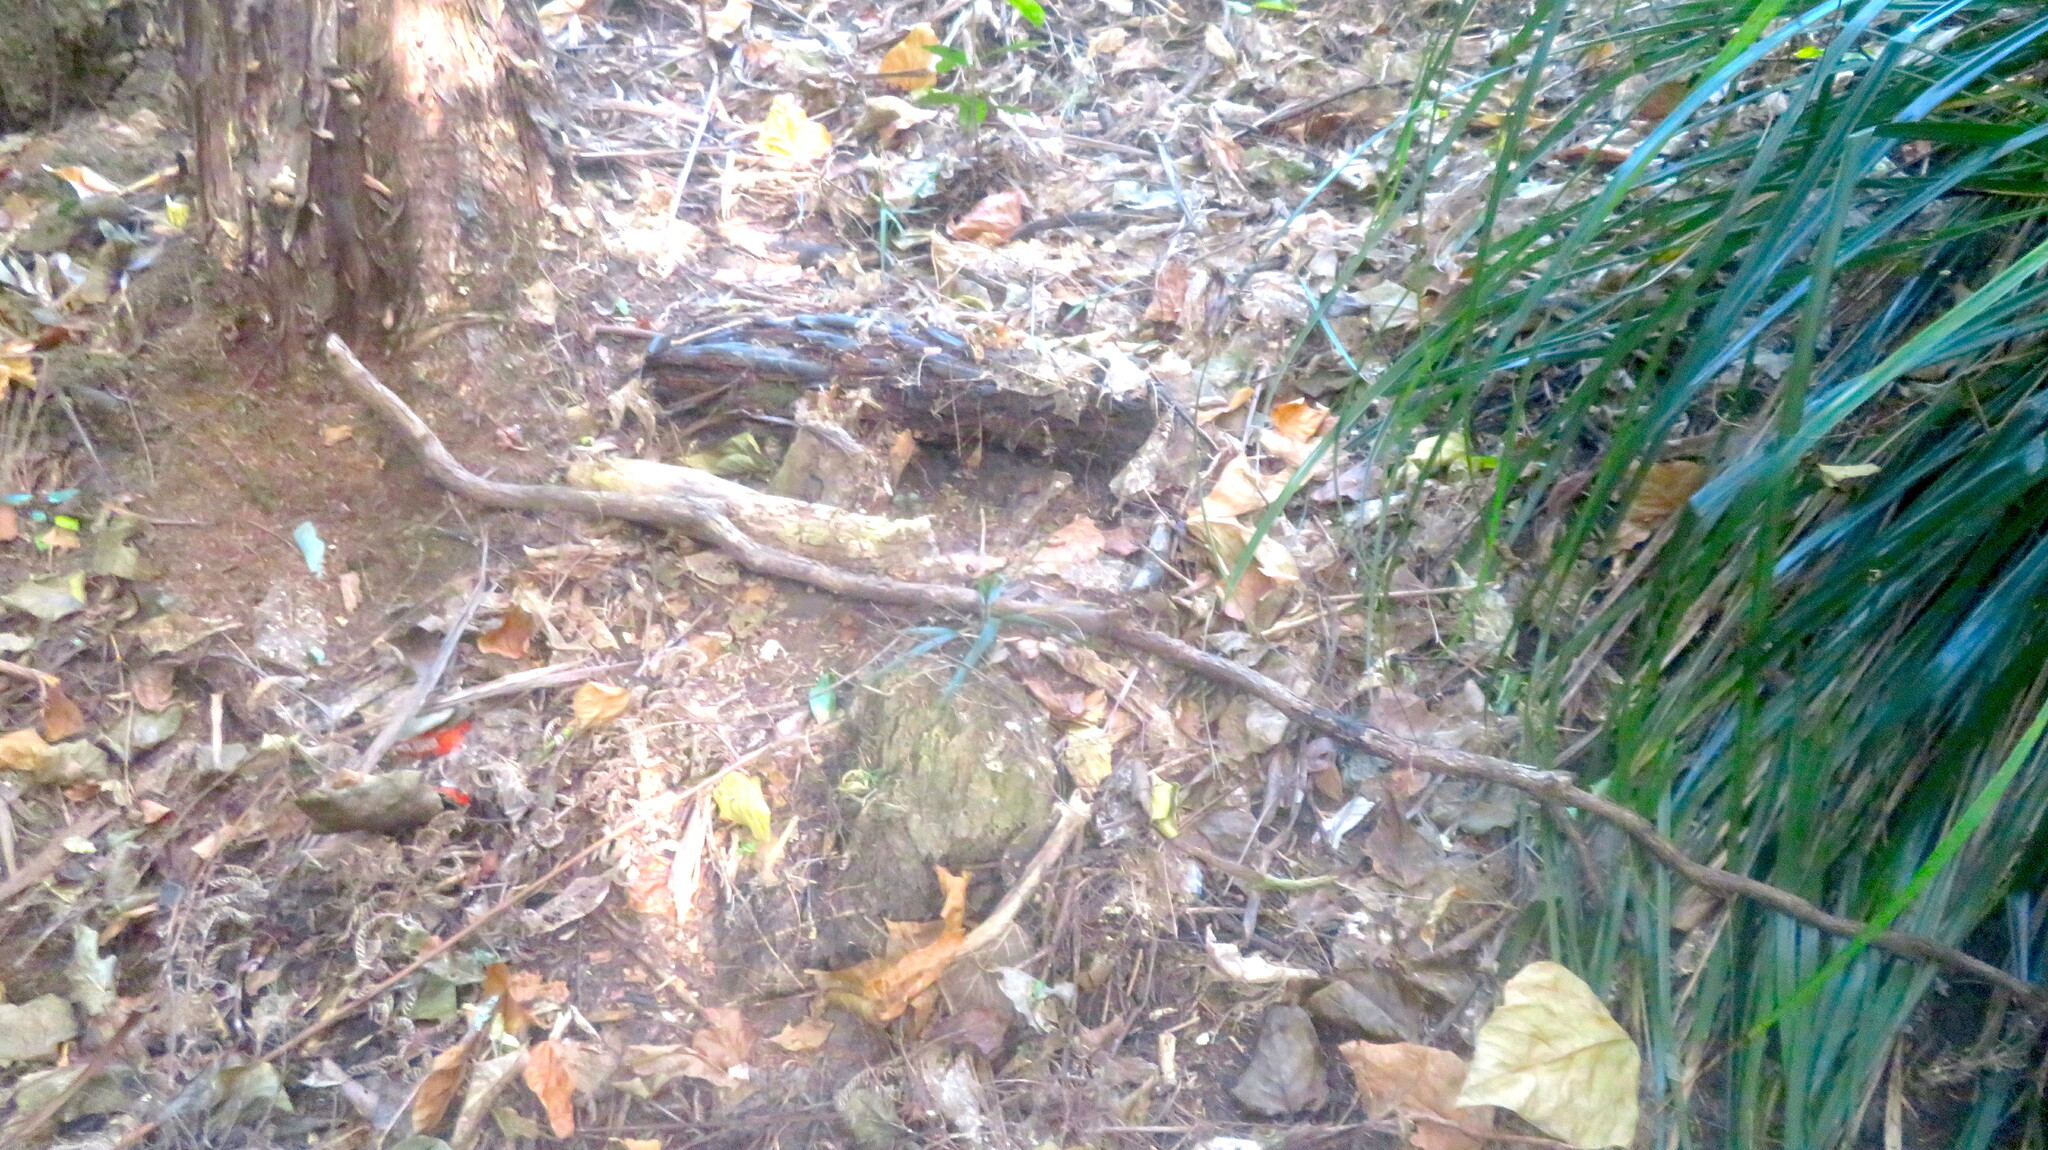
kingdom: Plantae
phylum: Tracheophyta
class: Magnoliopsida
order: Piperales
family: Piperaceae
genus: Macropiper
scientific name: Macropiper excelsum
